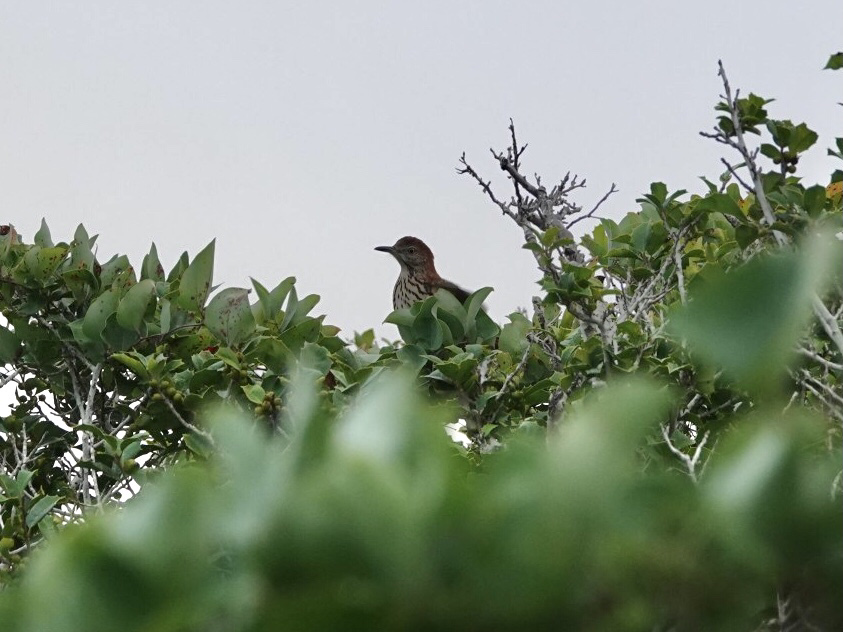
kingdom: Animalia
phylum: Chordata
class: Aves
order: Passeriformes
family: Mimidae
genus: Toxostoma
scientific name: Toxostoma rufum
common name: Brown thrasher
